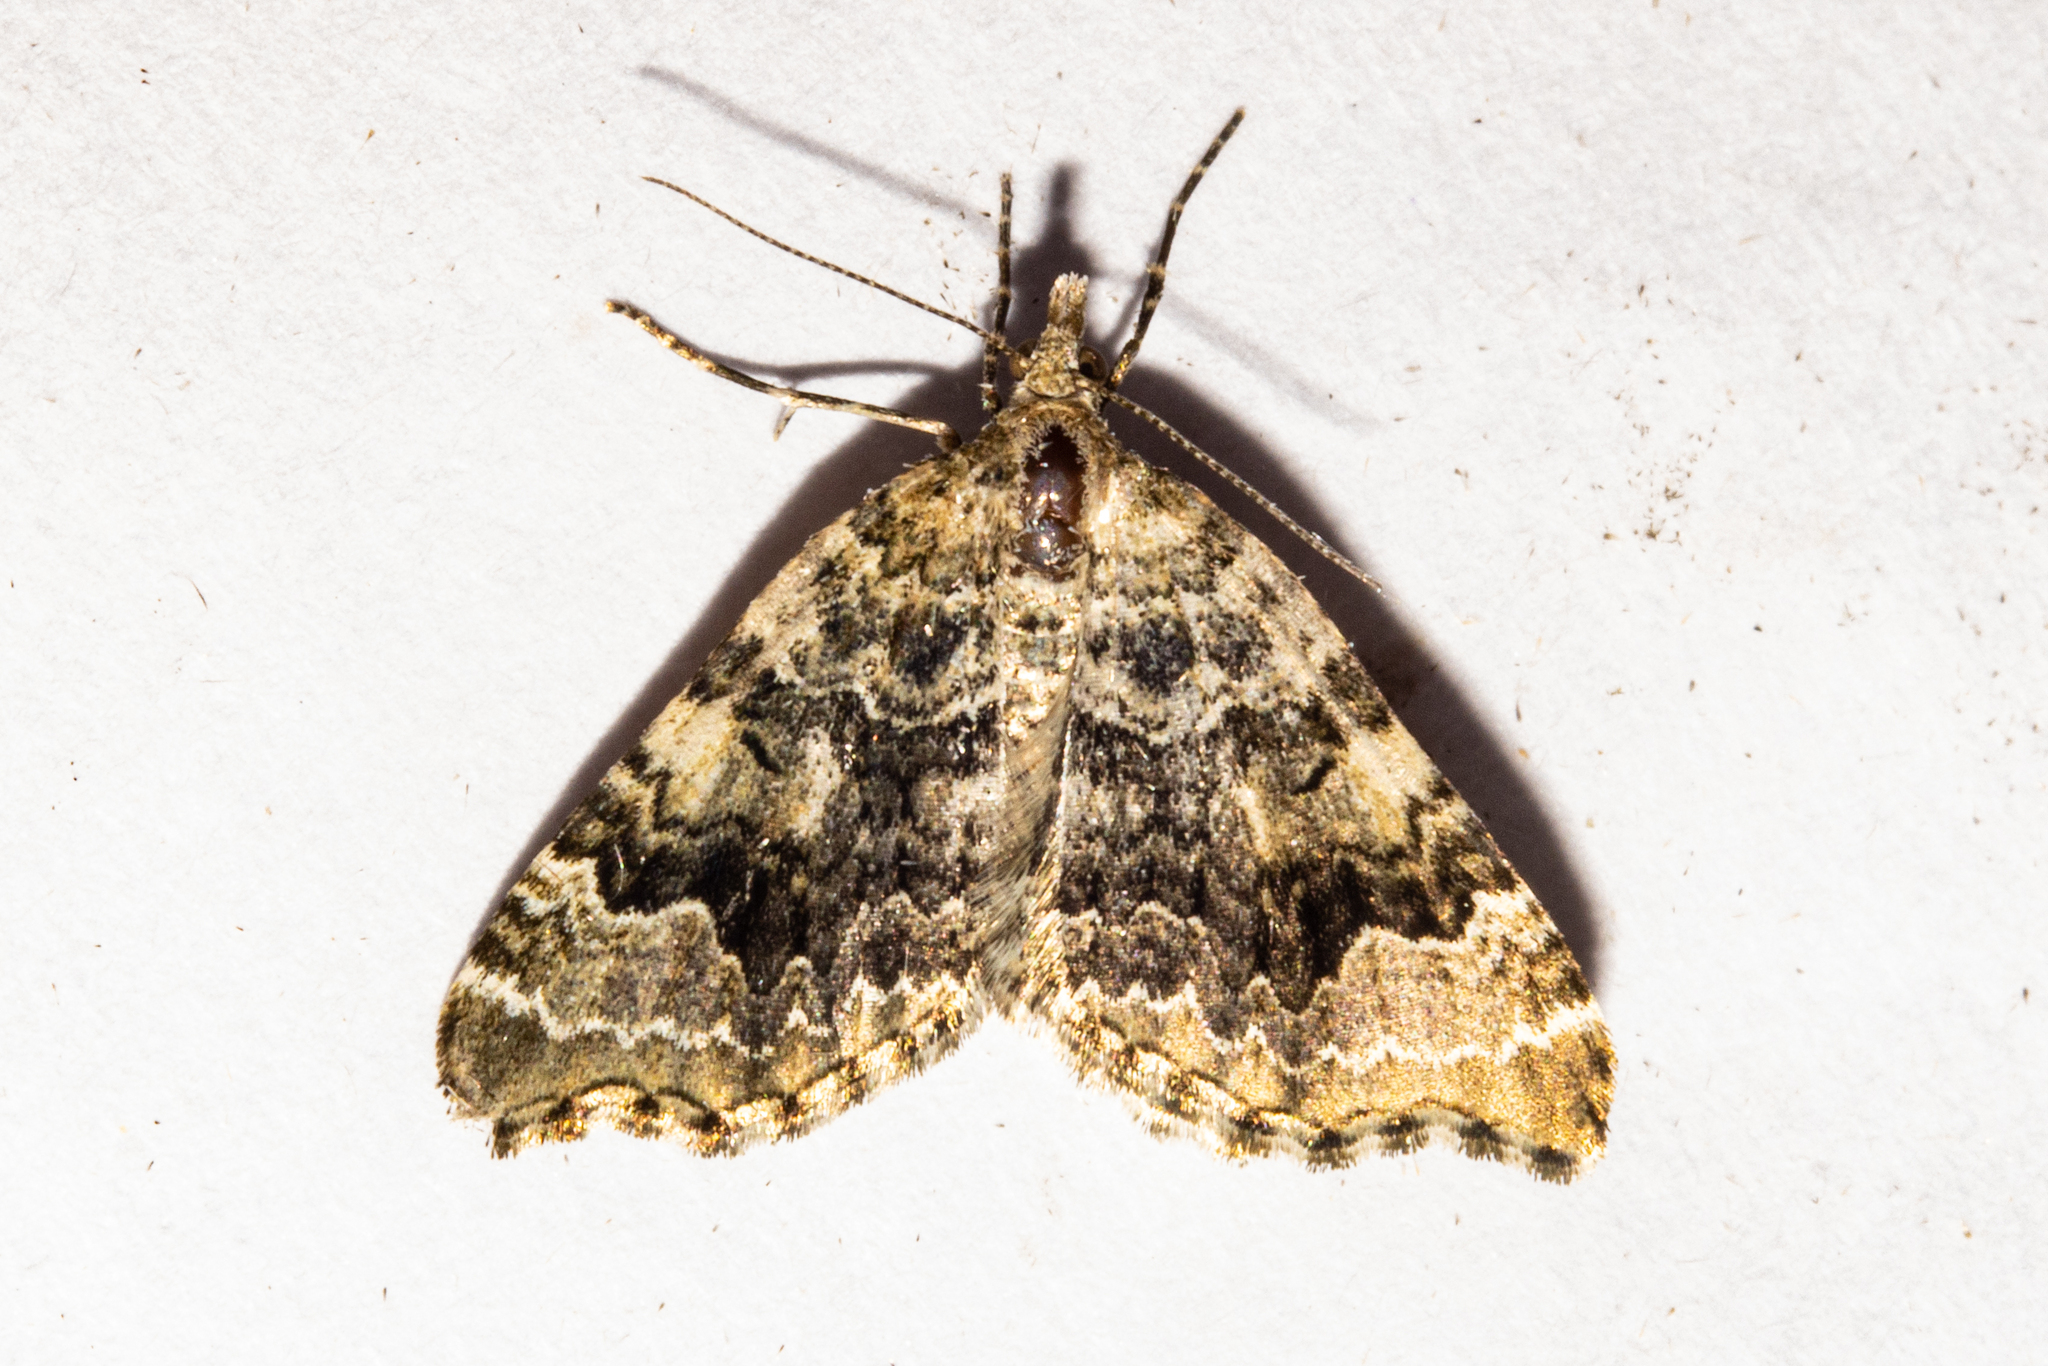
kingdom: Animalia
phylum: Arthropoda
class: Insecta
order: Lepidoptera
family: Geometridae
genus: Helastia
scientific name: Helastia cryptica
